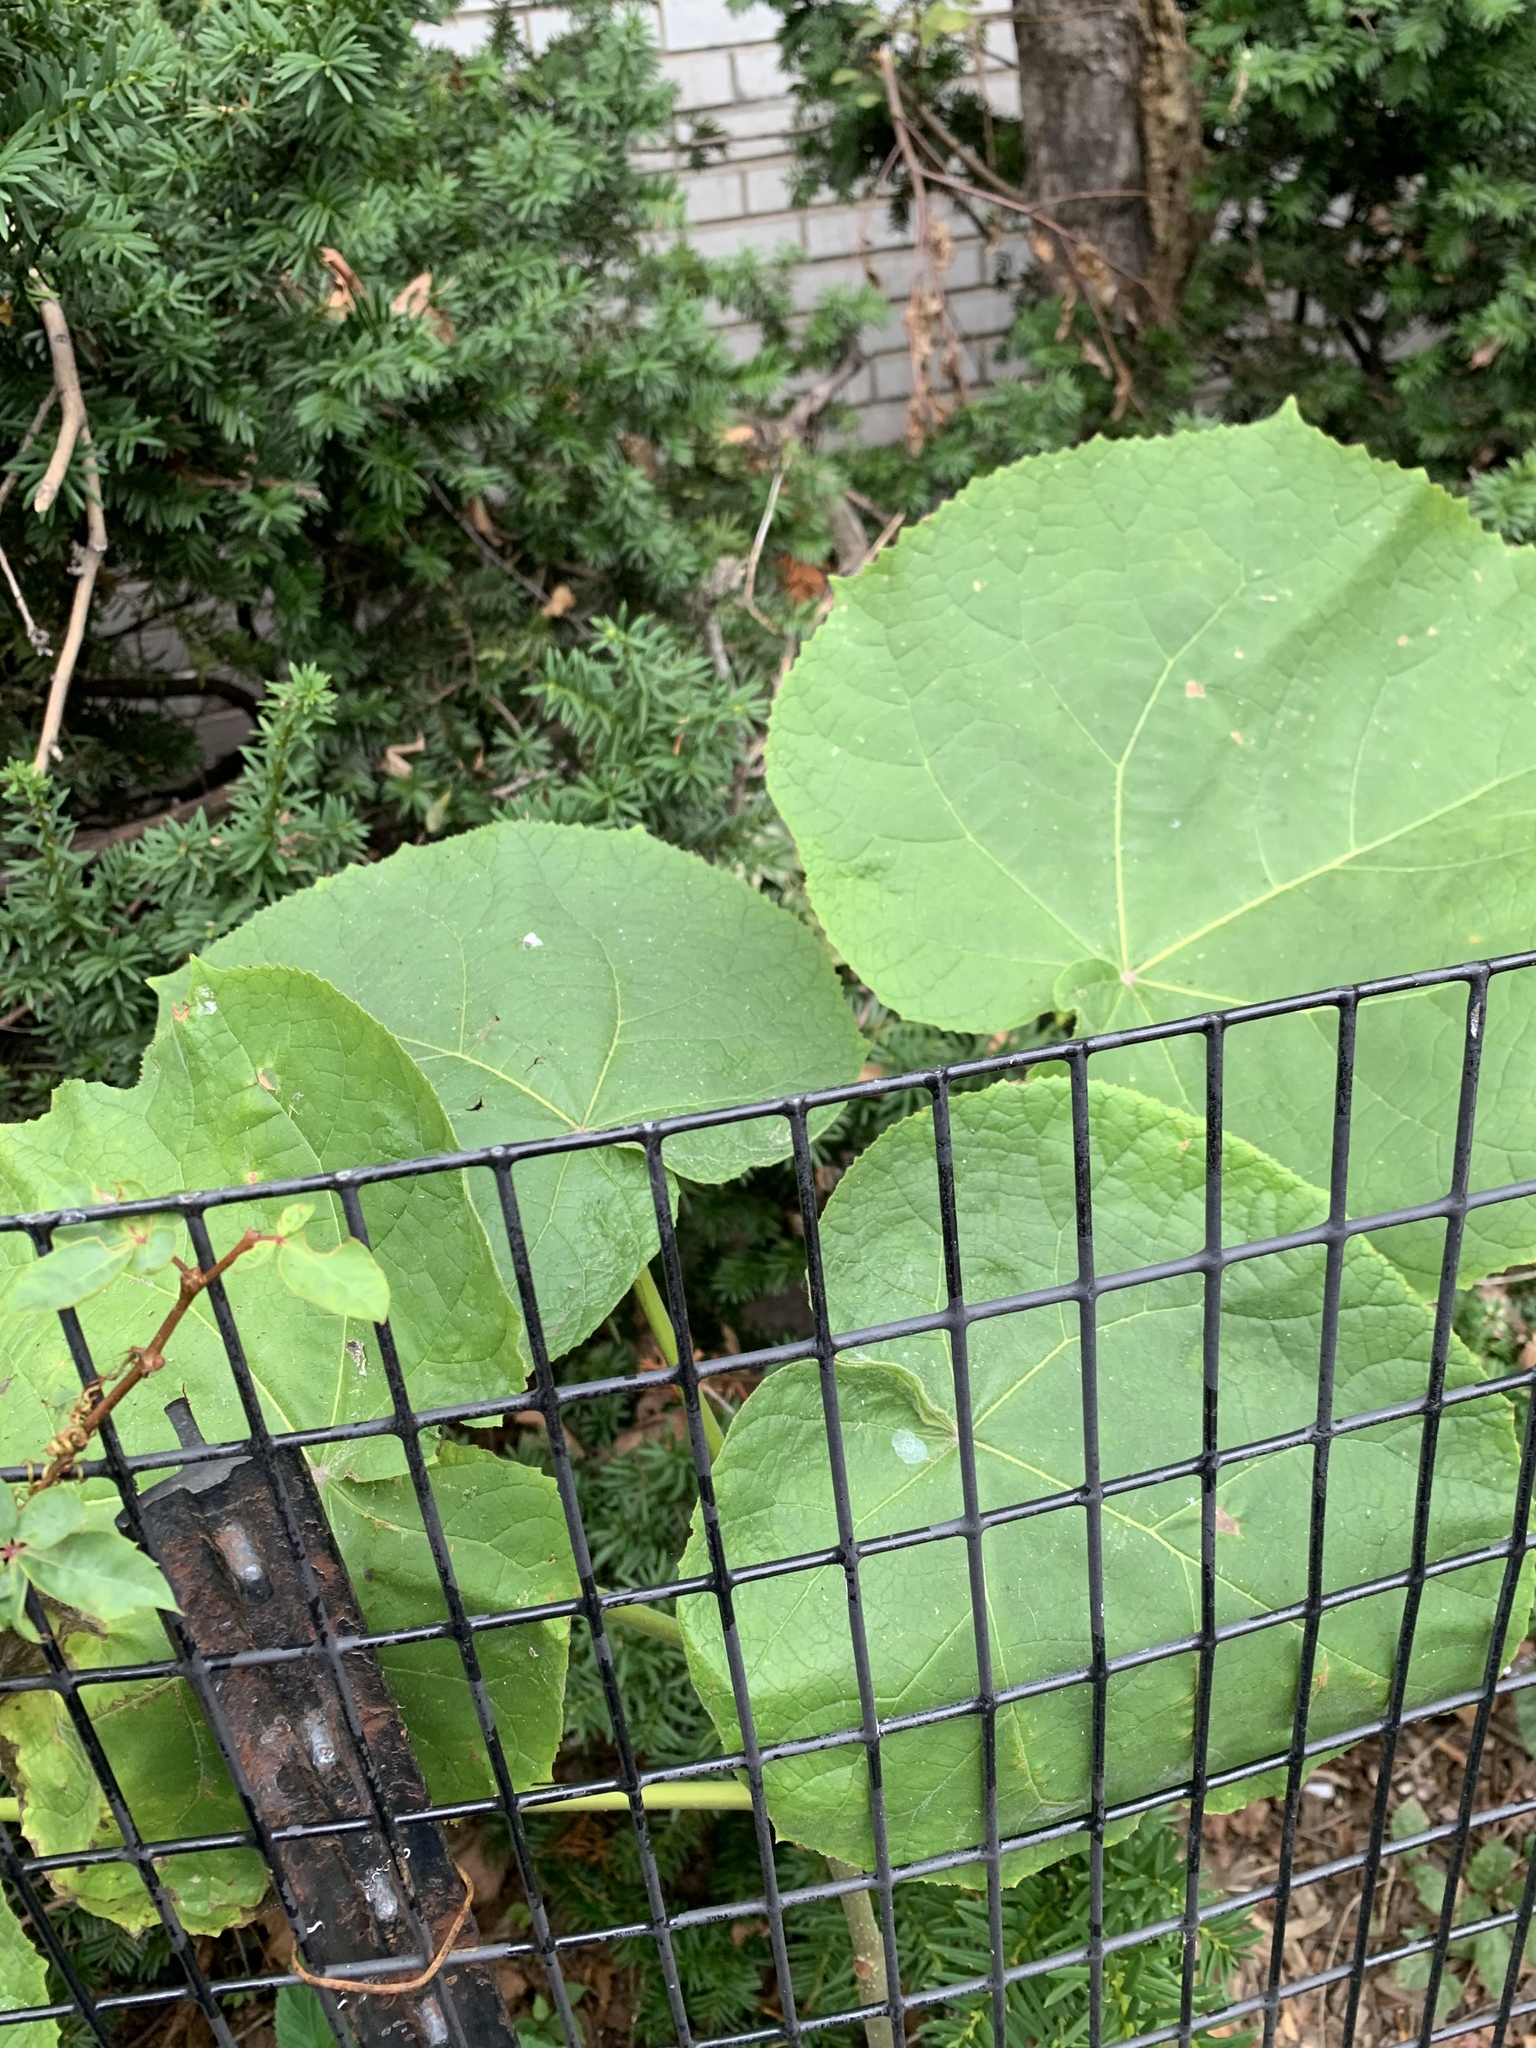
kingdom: Plantae
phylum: Tracheophyta
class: Magnoliopsida
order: Lamiales
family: Paulowniaceae
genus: Paulownia
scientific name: Paulownia tomentosa
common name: Foxglove-tree
